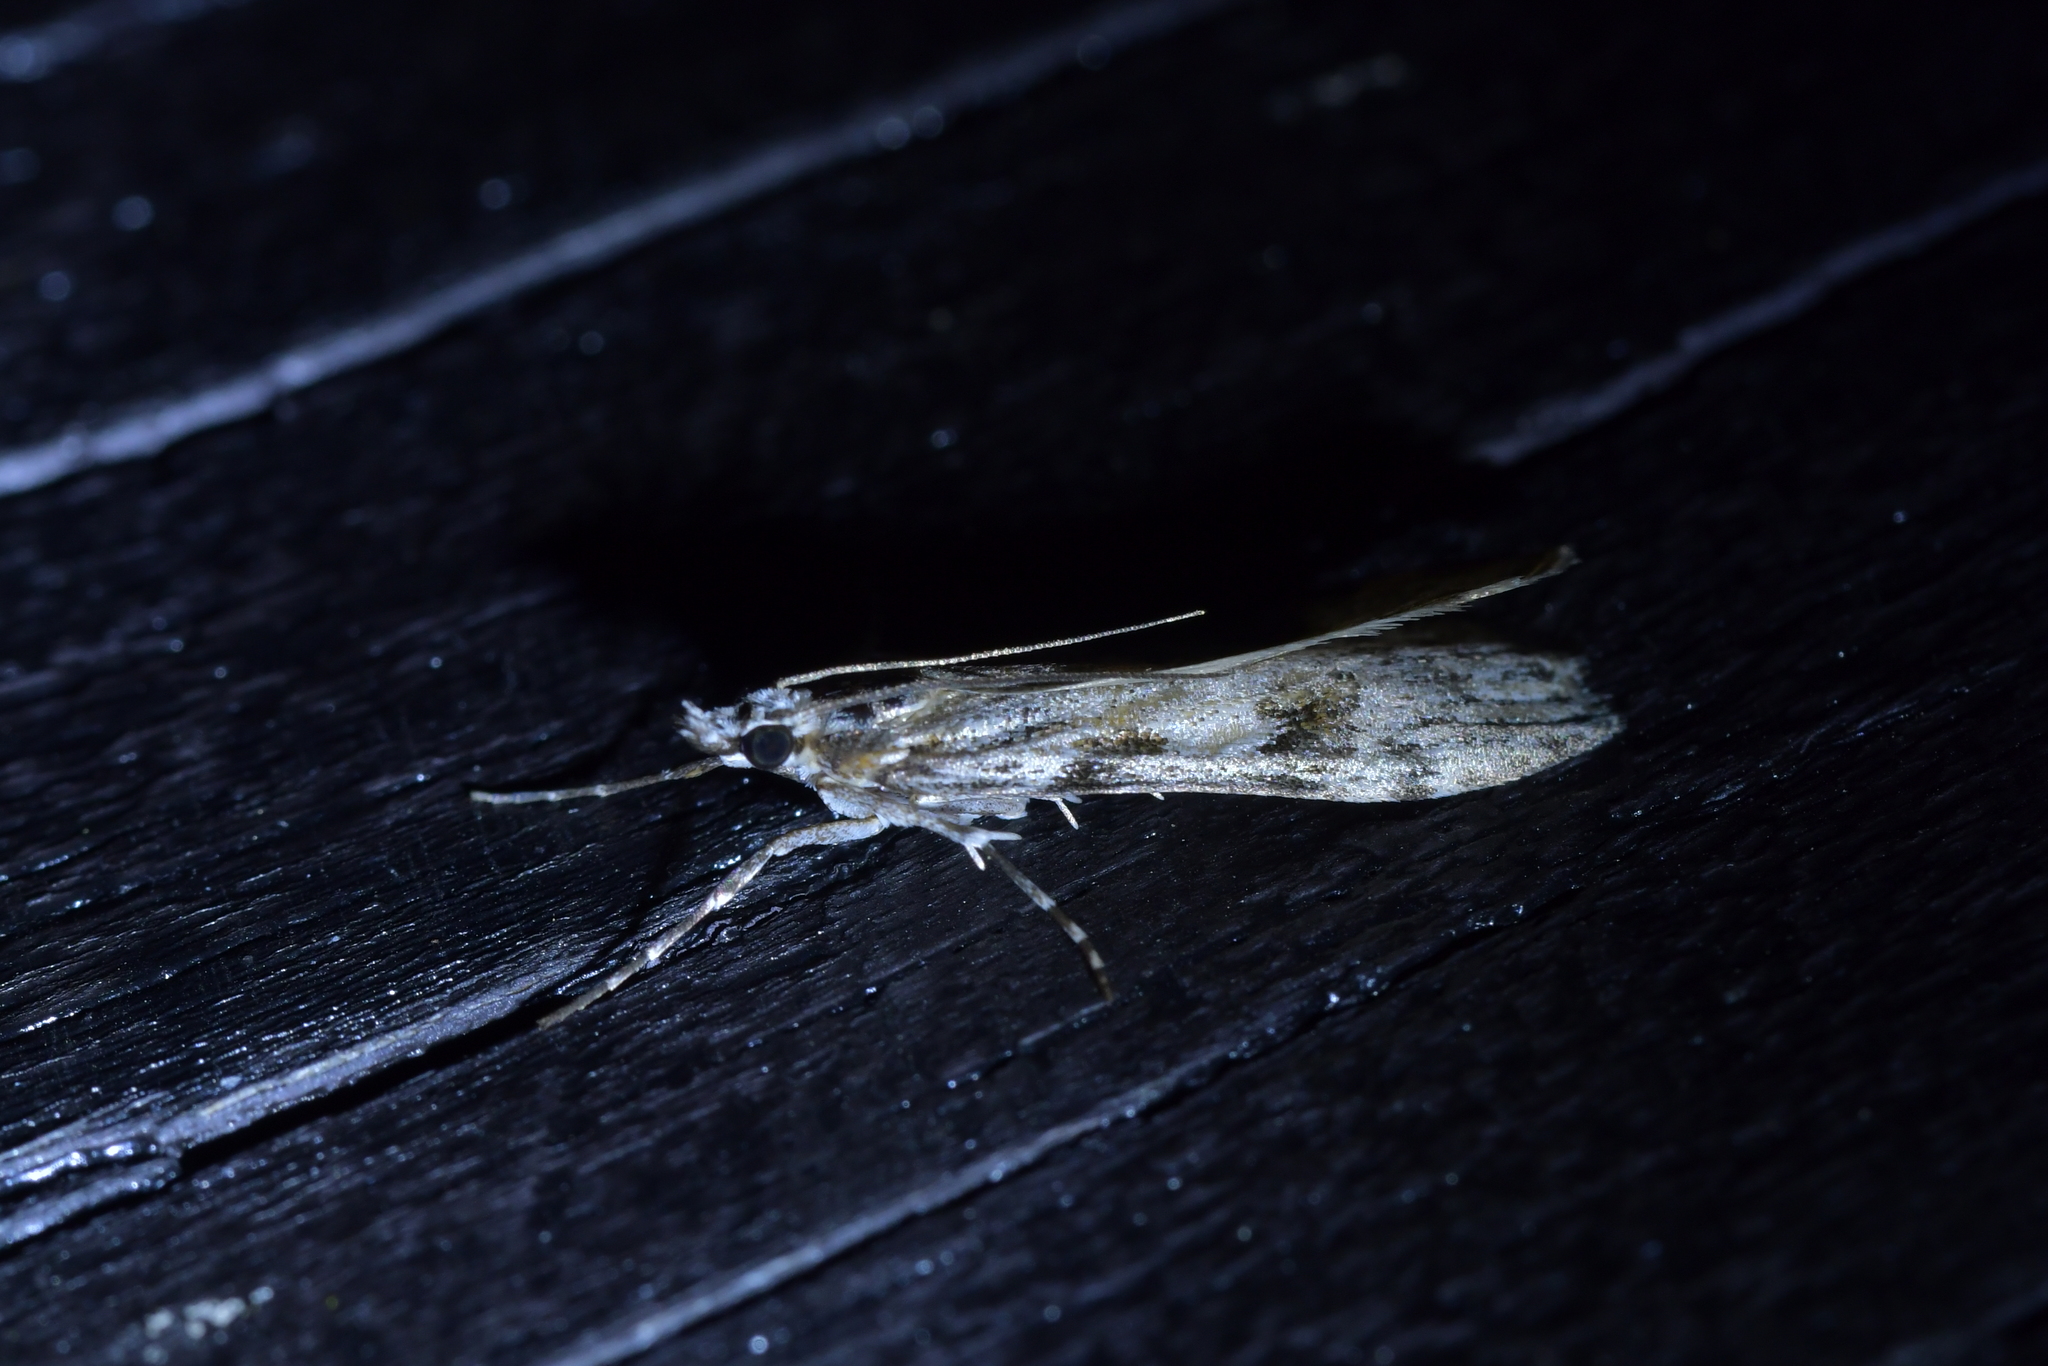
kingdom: Animalia
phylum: Arthropoda
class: Insecta
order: Lepidoptera
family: Crambidae
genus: Scoparia
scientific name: Scoparia halopis
